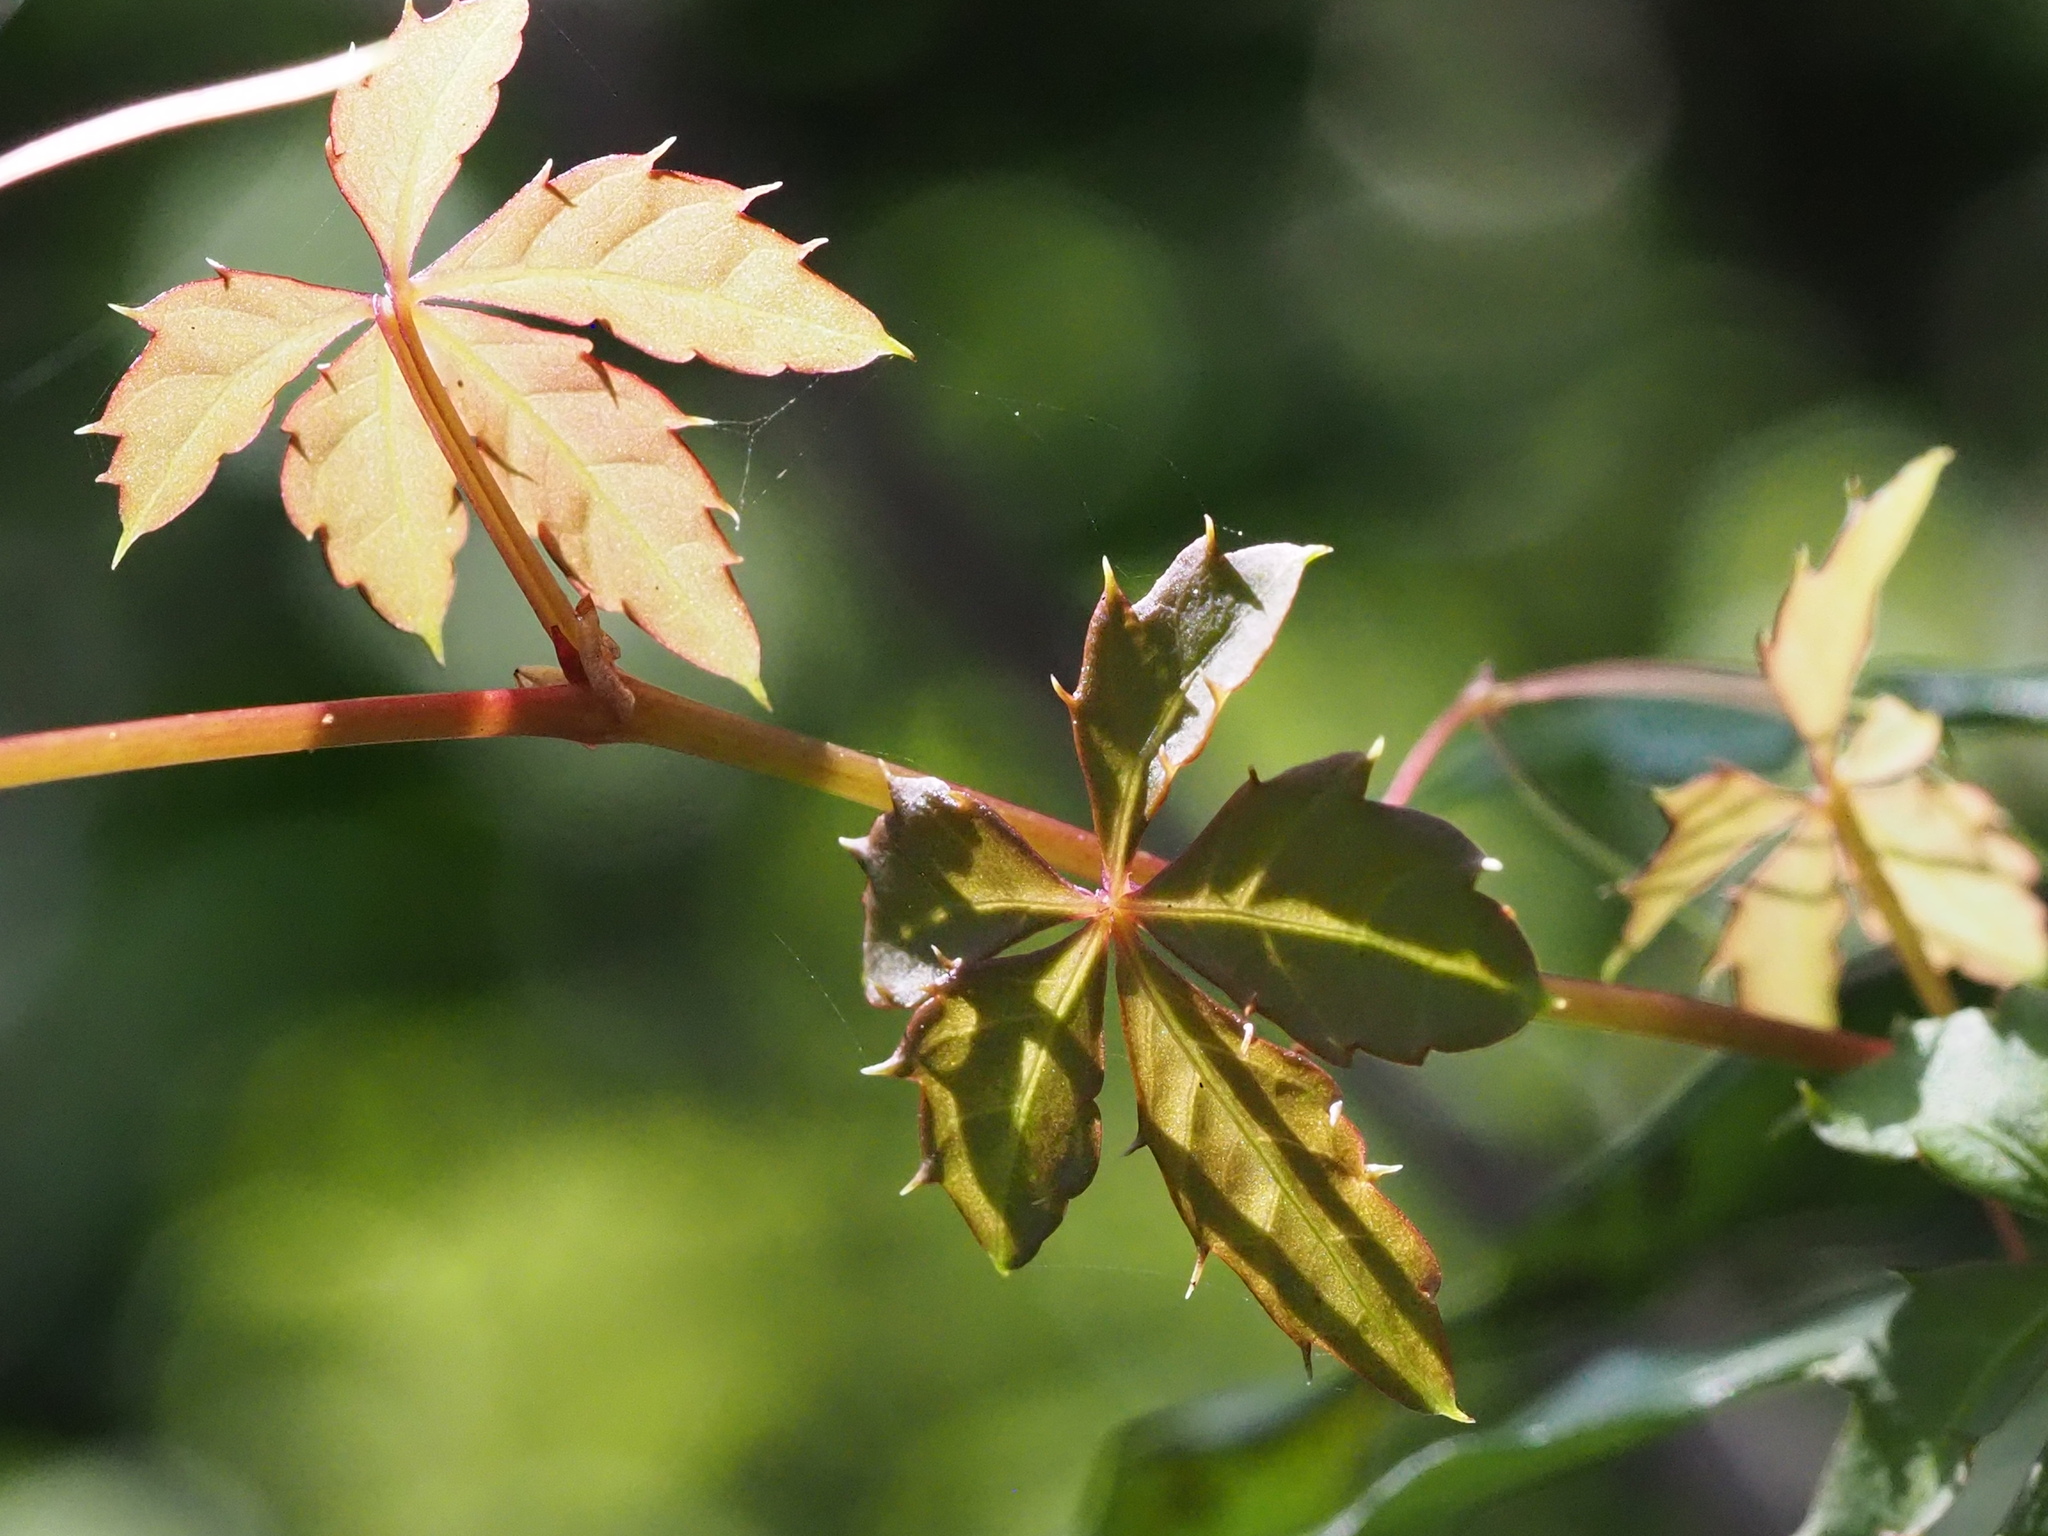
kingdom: Plantae
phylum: Tracheophyta
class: Magnoliopsida
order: Vitales
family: Vitaceae
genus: Tetrastigma
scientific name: Tetrastigma obtectum
